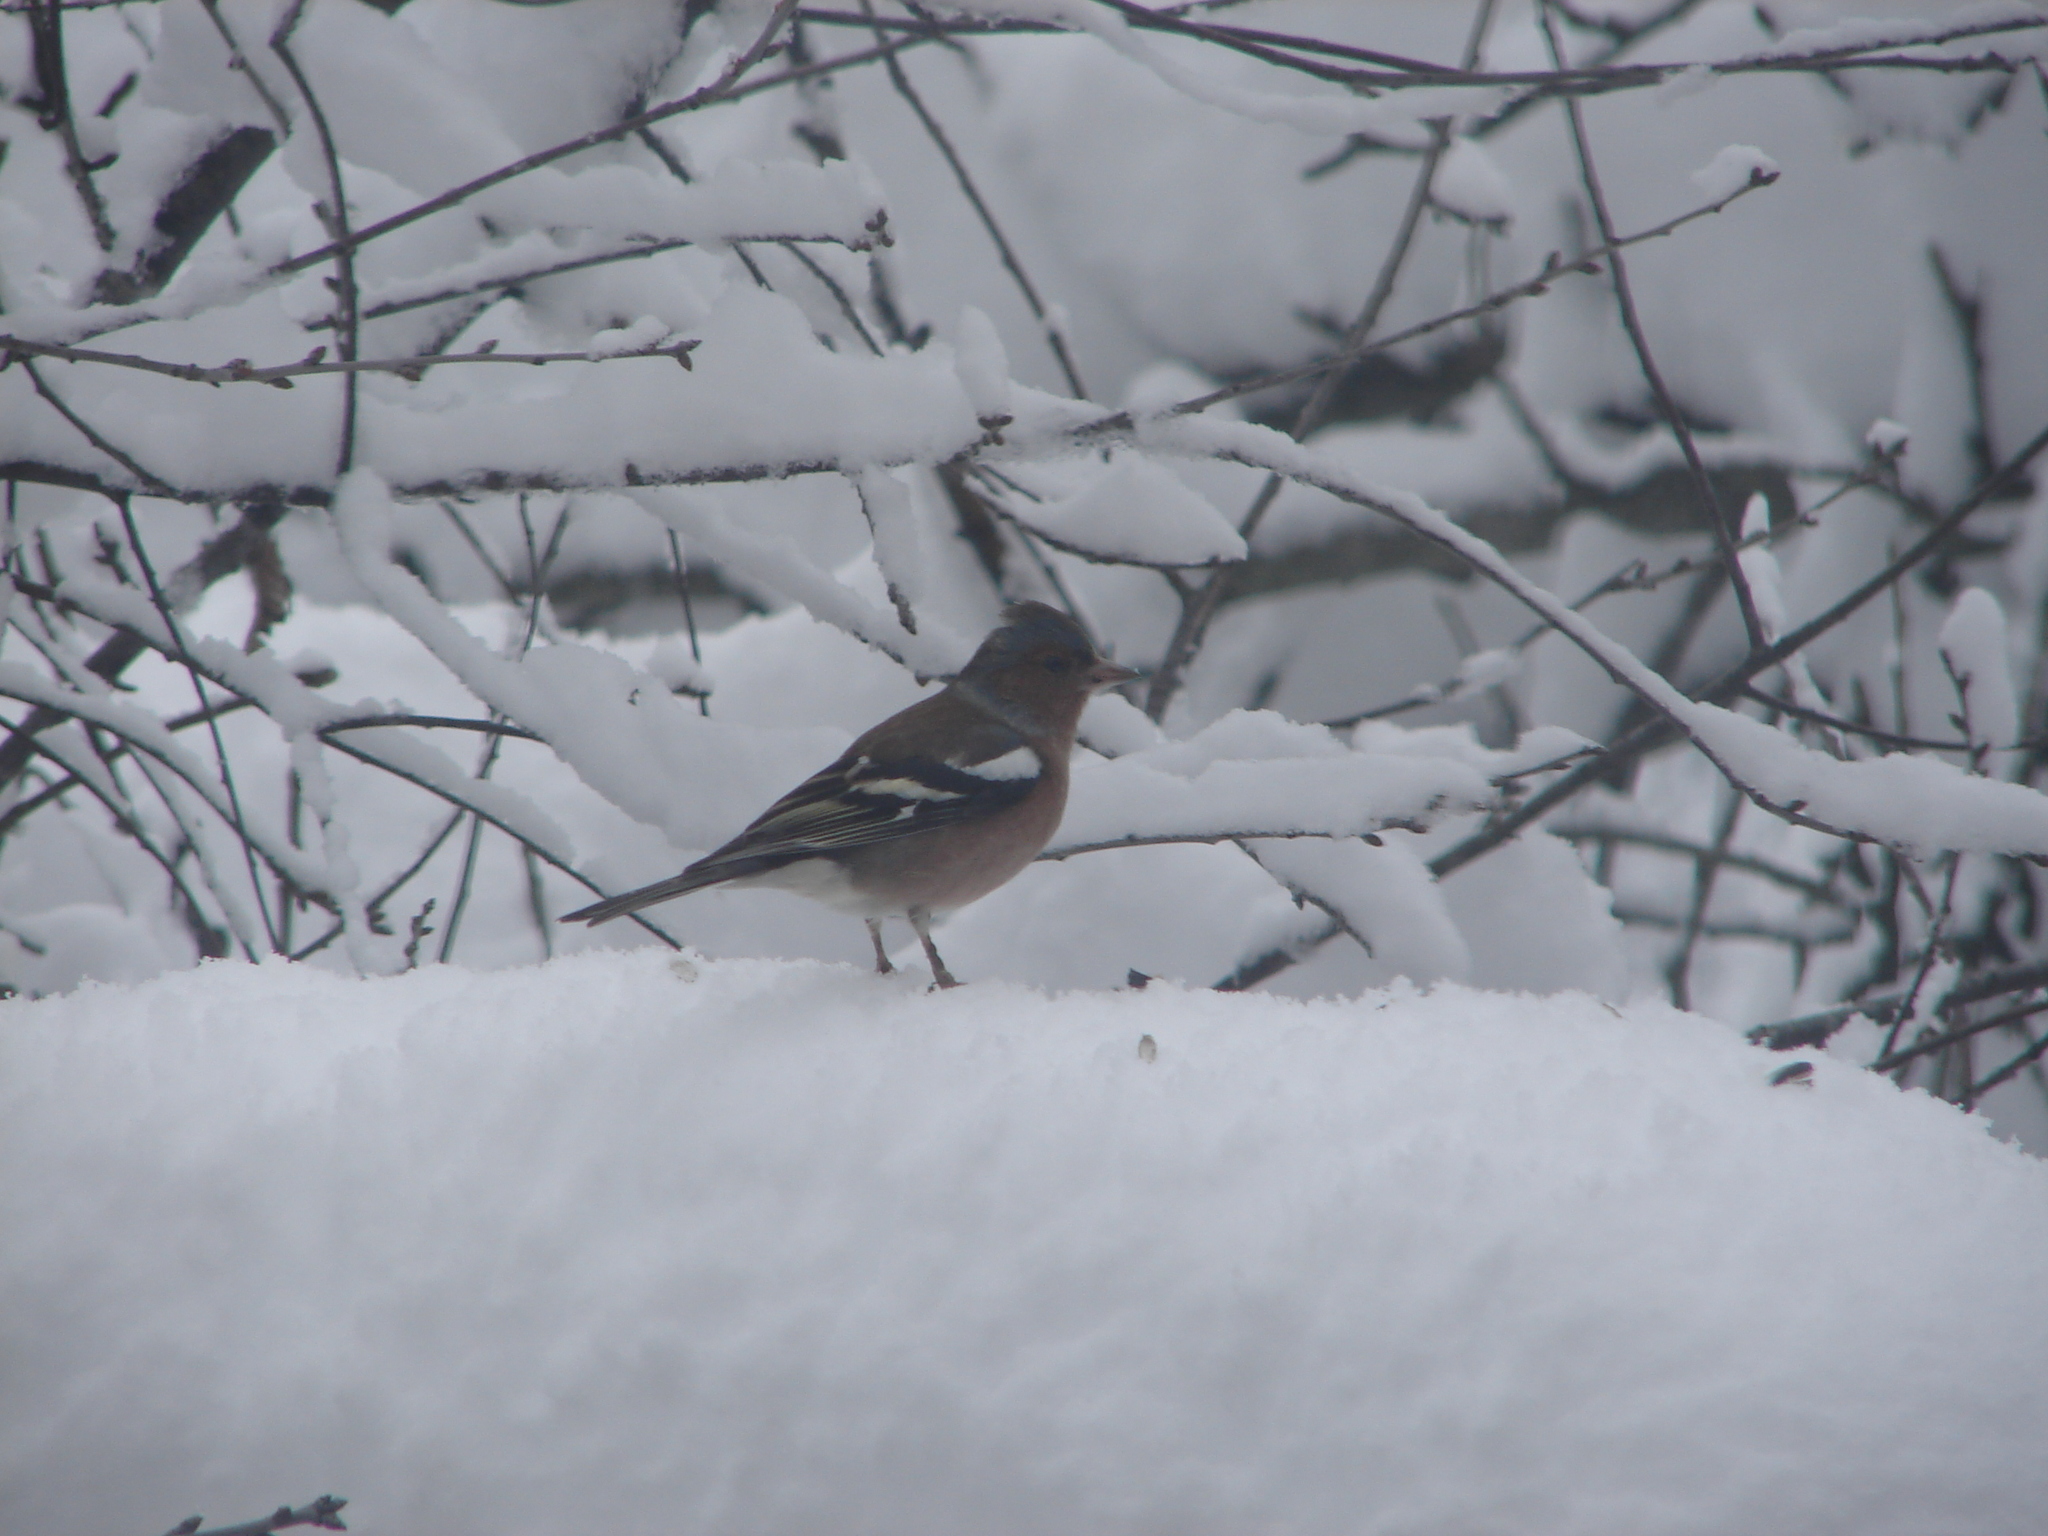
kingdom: Animalia
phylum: Chordata
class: Aves
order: Passeriformes
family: Fringillidae
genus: Fringilla
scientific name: Fringilla coelebs
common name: Common chaffinch
